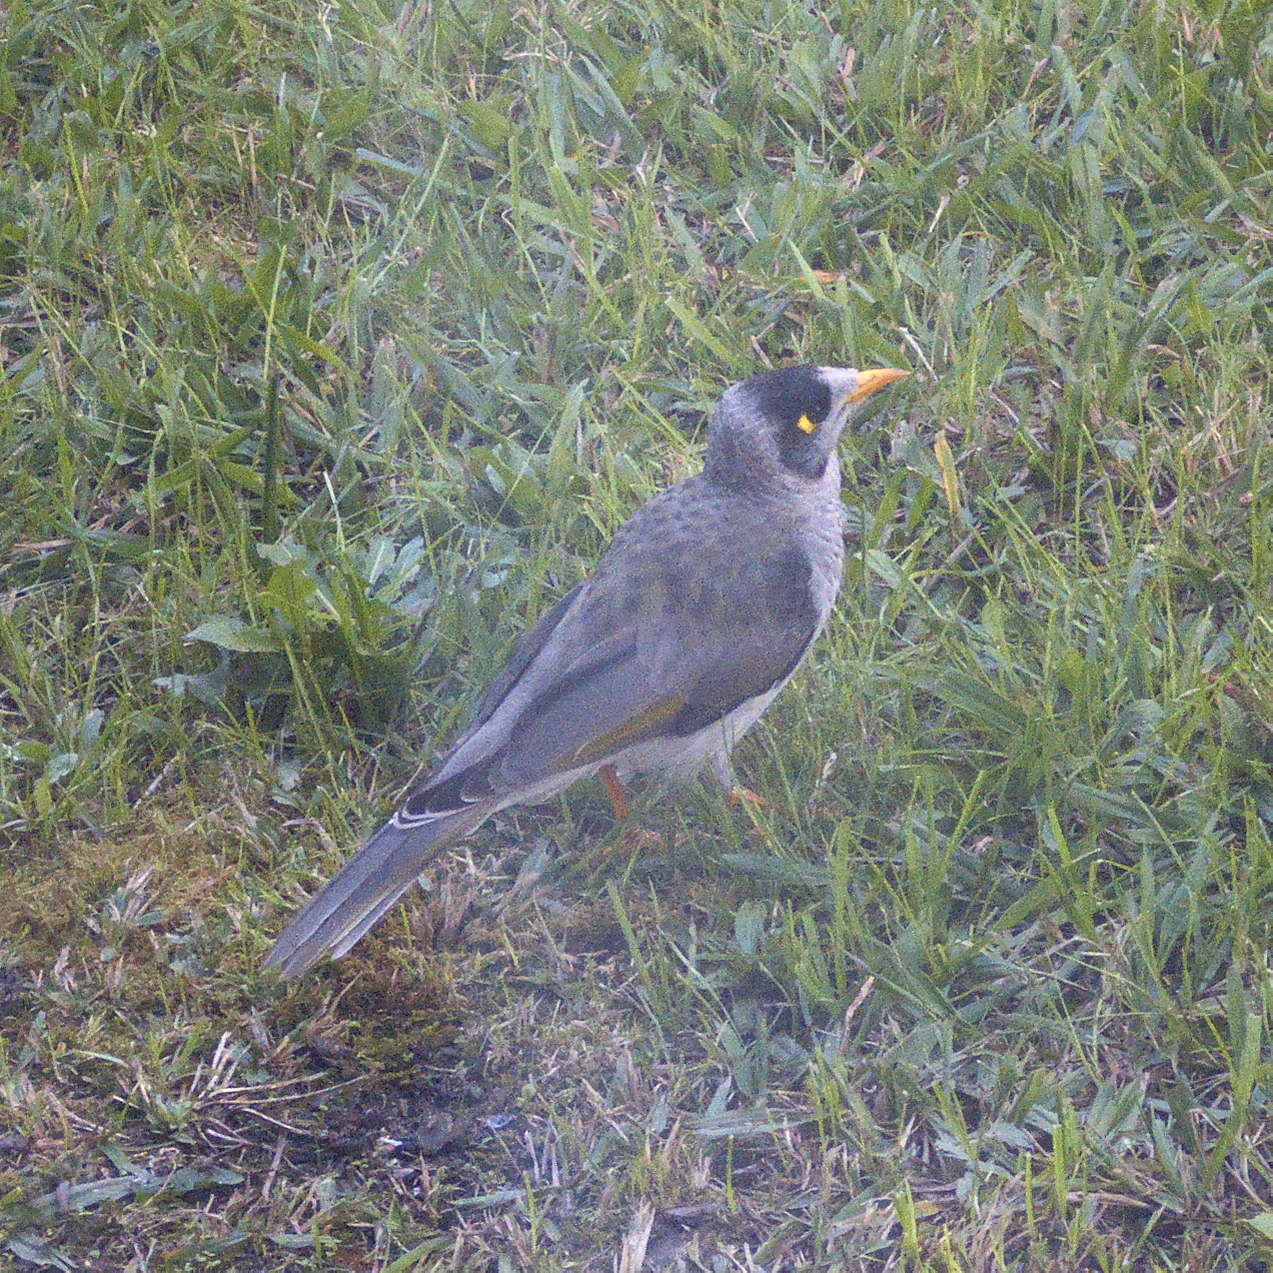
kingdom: Animalia
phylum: Chordata
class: Aves
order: Passeriformes
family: Meliphagidae
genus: Manorina
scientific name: Manorina melanocephala
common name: Noisy miner
